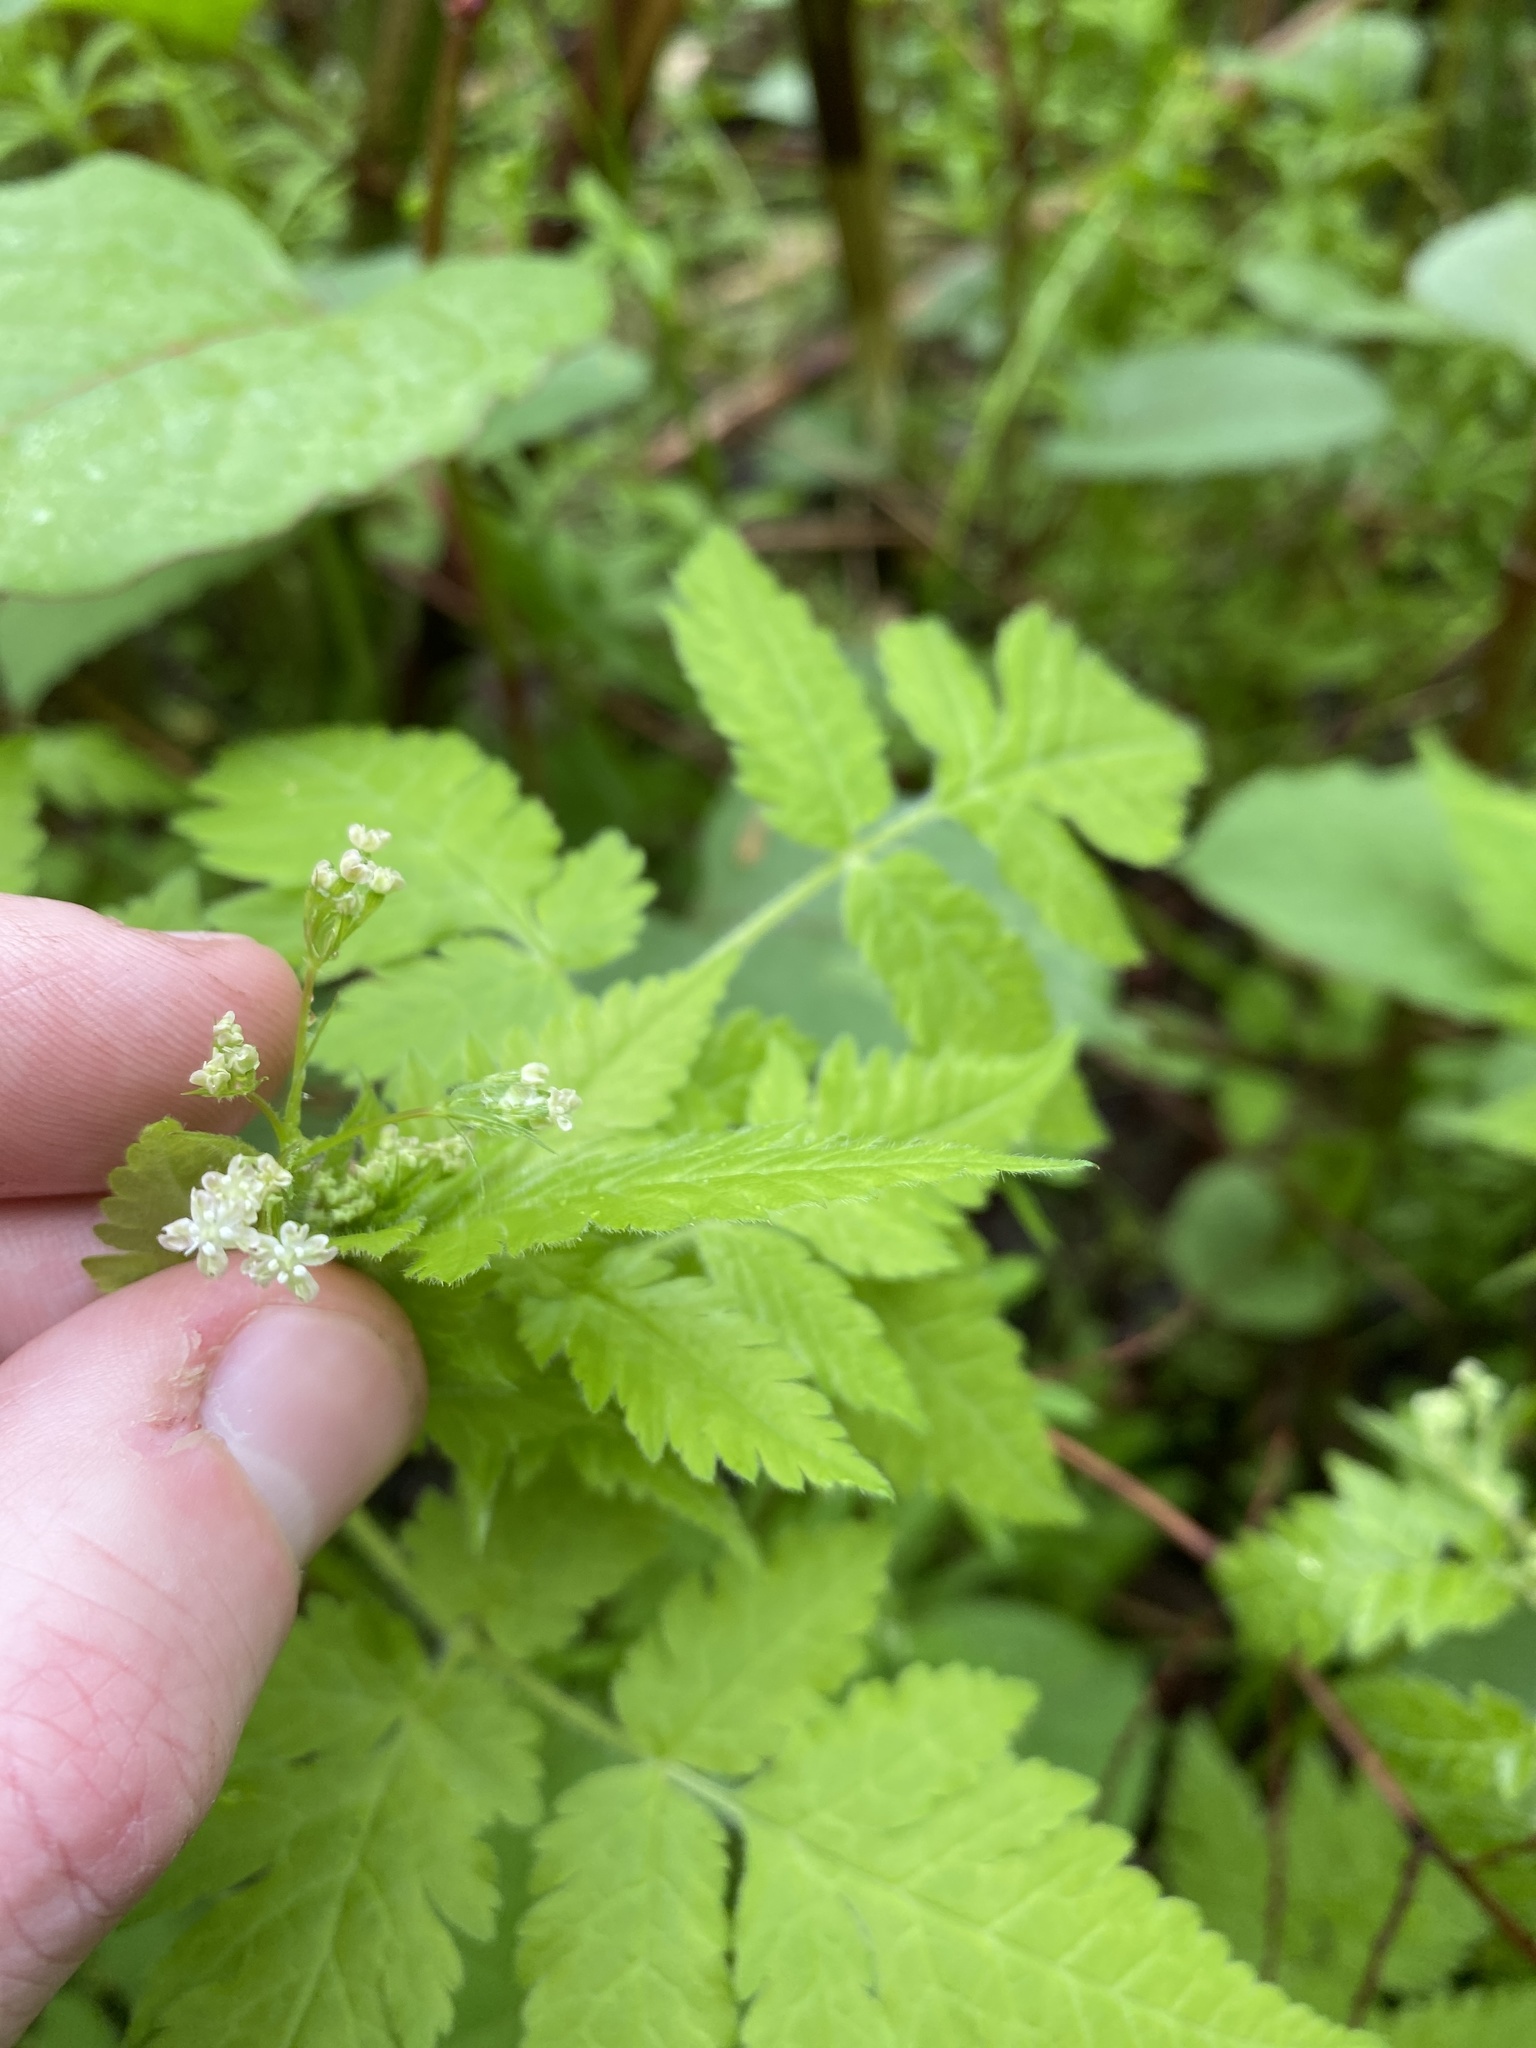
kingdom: Plantae
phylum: Tracheophyta
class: Magnoliopsida
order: Apiales
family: Apiaceae
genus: Osmorhiza
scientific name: Osmorhiza claytonii
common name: Hairy sweet cicely
